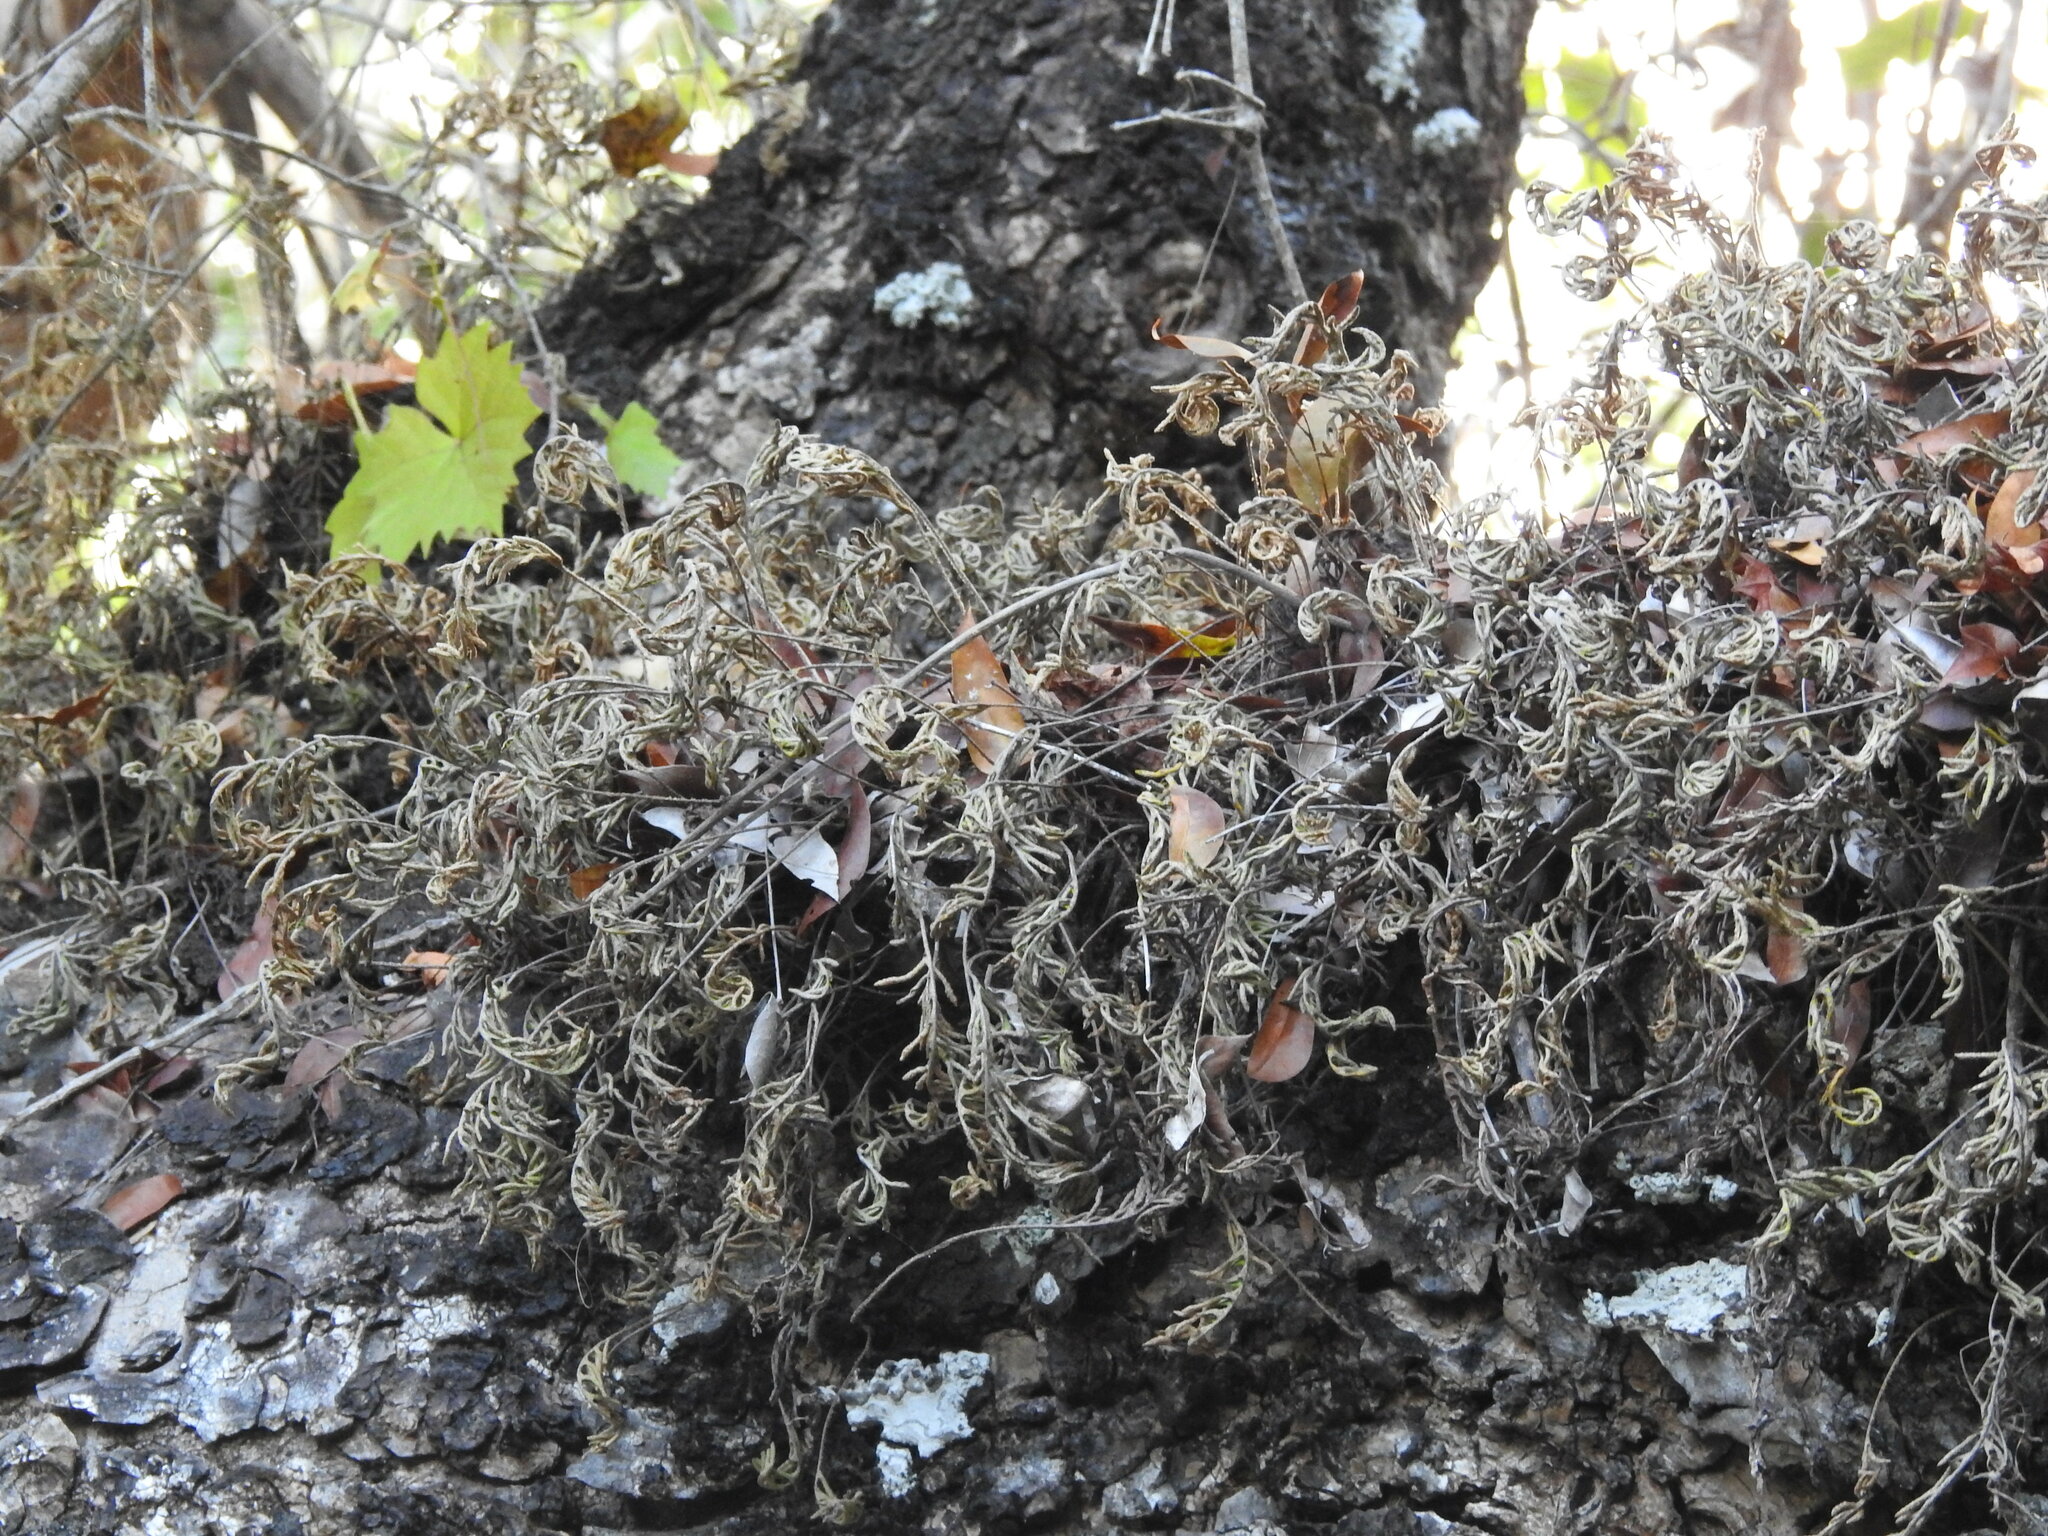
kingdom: Plantae
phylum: Tracheophyta
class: Polypodiopsida
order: Polypodiales
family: Polypodiaceae
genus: Pleopeltis
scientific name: Pleopeltis michauxiana
